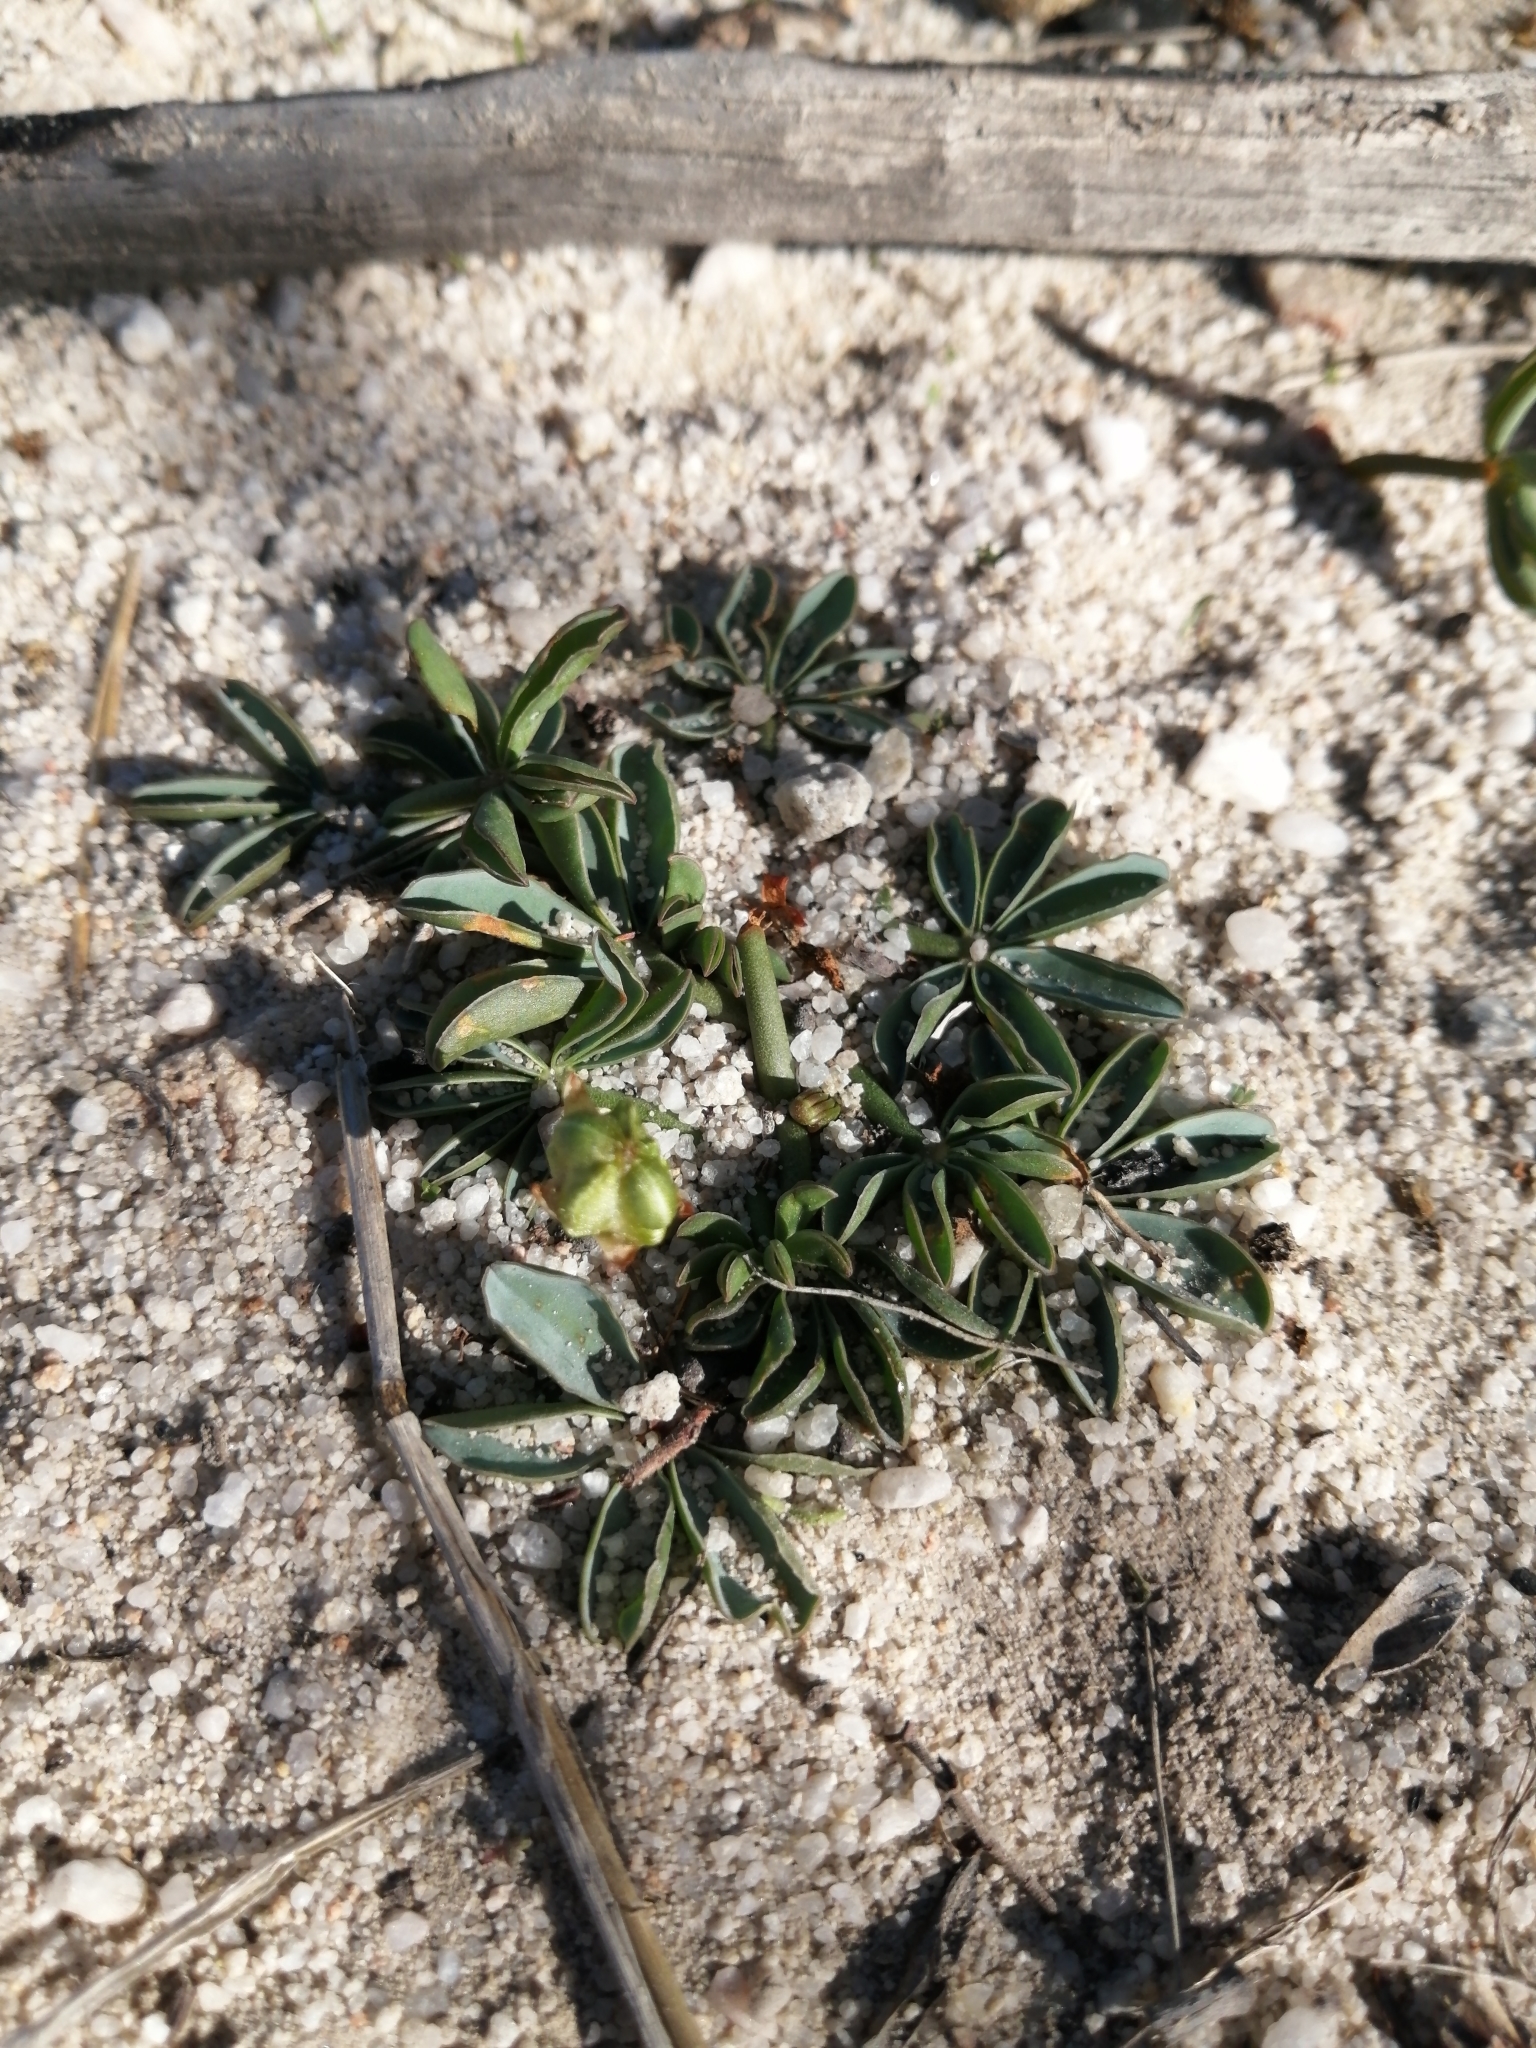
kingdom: Plantae
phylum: Tracheophyta
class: Magnoliopsida
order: Oxalidales
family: Oxalidaceae
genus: Oxalis
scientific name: Oxalis flava
